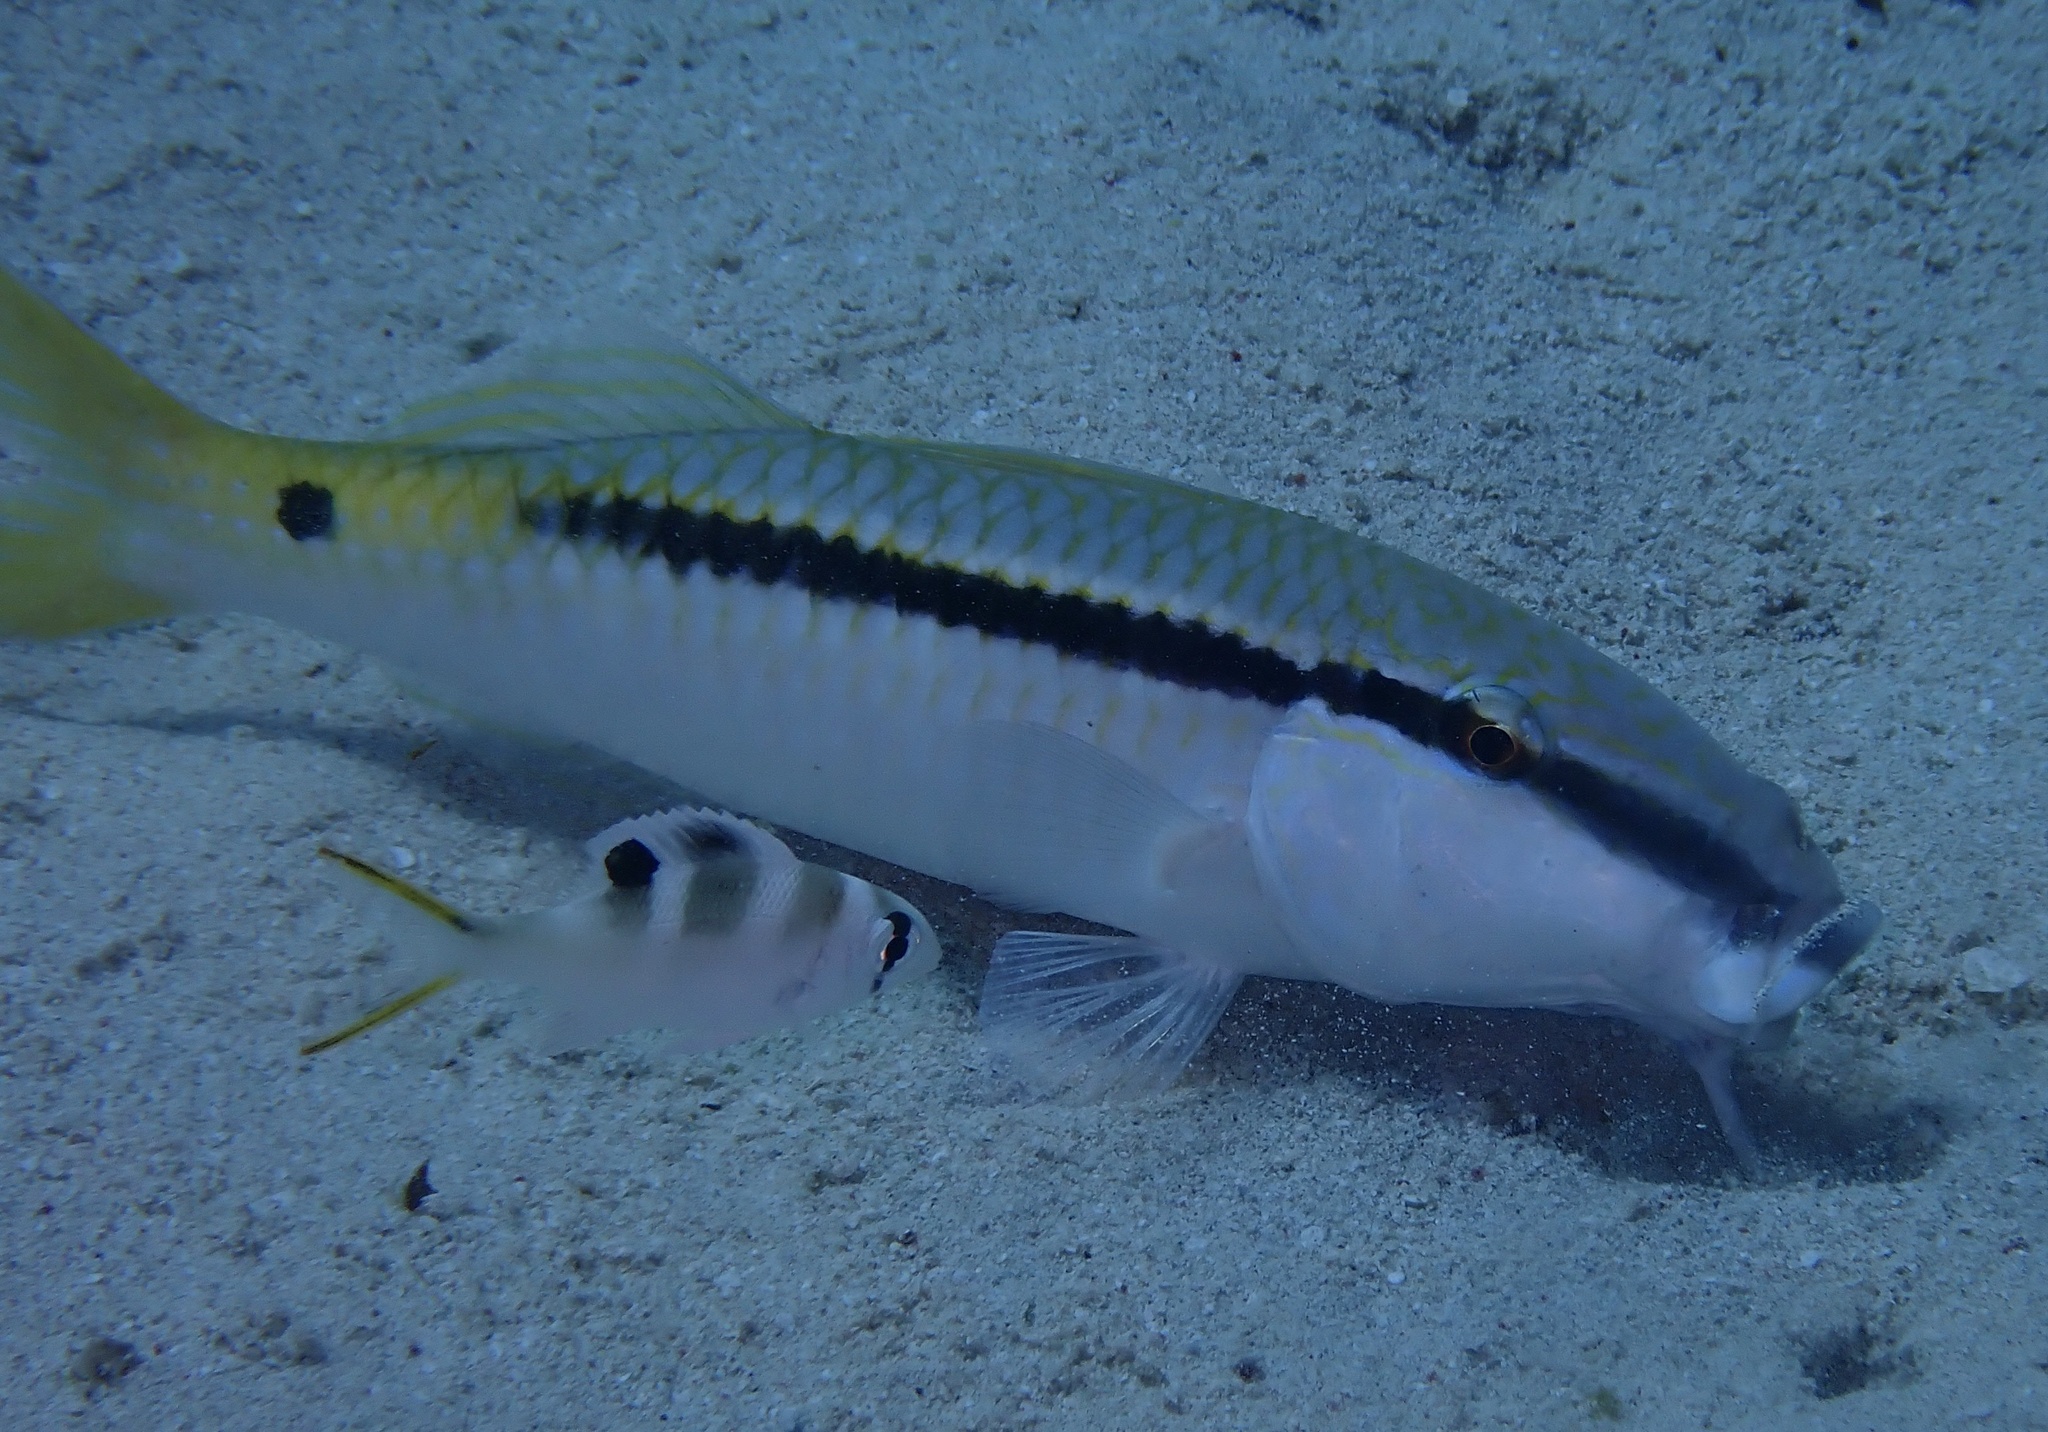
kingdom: Animalia
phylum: Chordata
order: Perciformes
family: Mullidae
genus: Parupeneus
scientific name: Parupeneus forsskali
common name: Red sea goatfish
